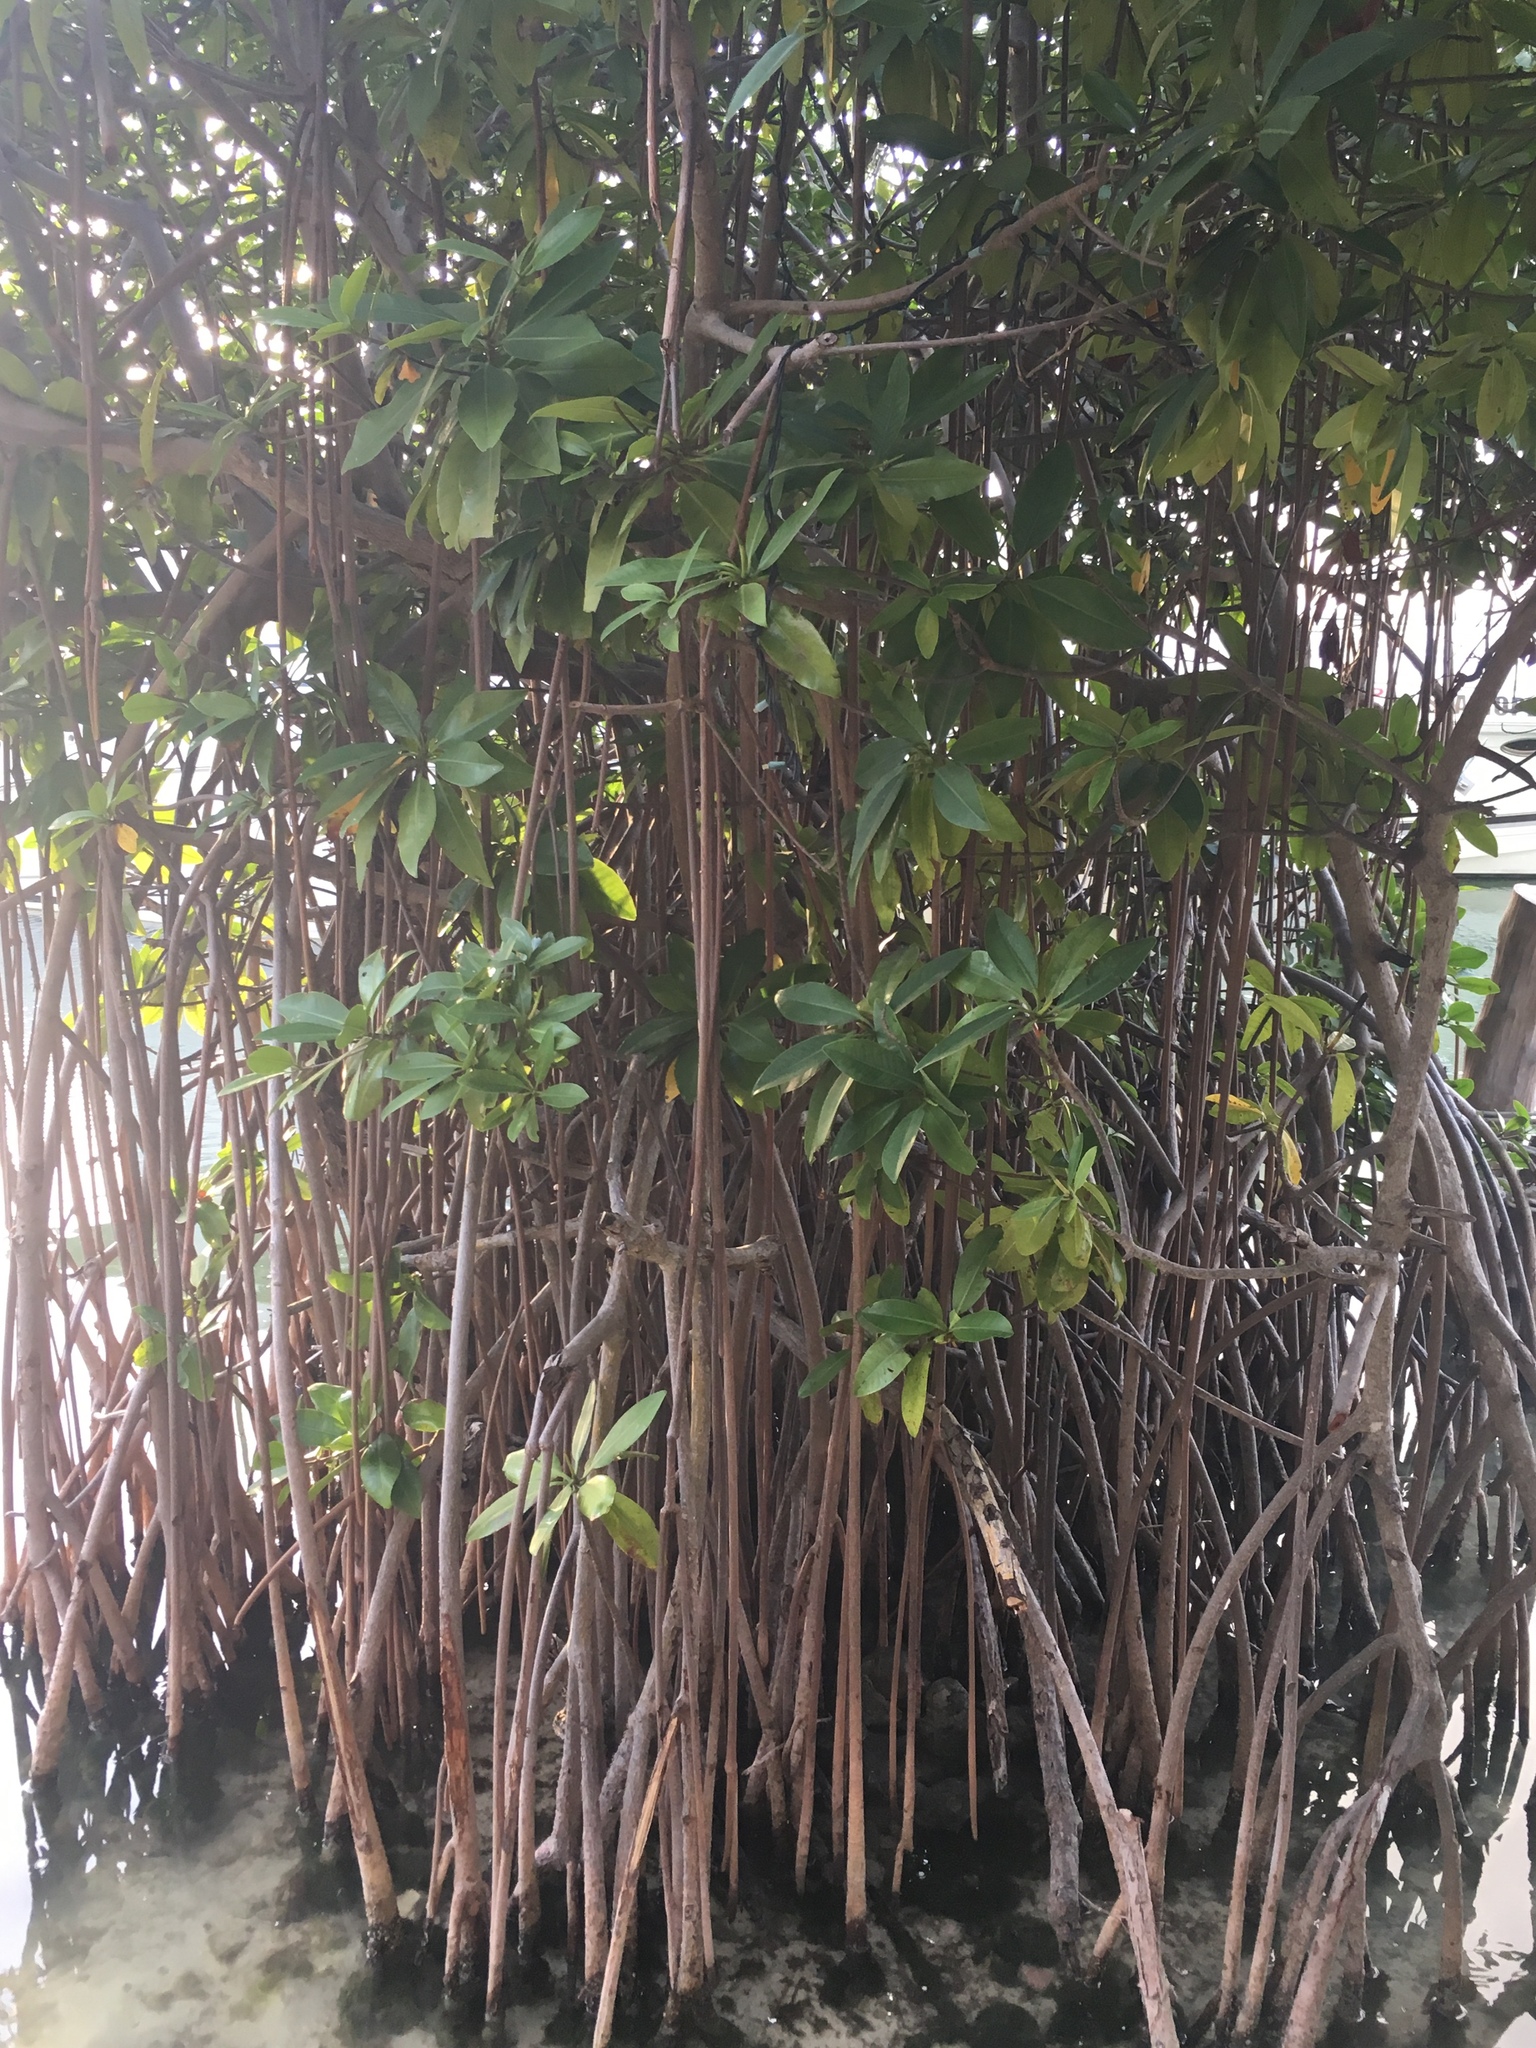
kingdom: Plantae
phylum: Tracheophyta
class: Magnoliopsida
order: Malpighiales
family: Rhizophoraceae
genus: Rhizophora
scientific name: Rhizophora mangle
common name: Red mangrove
